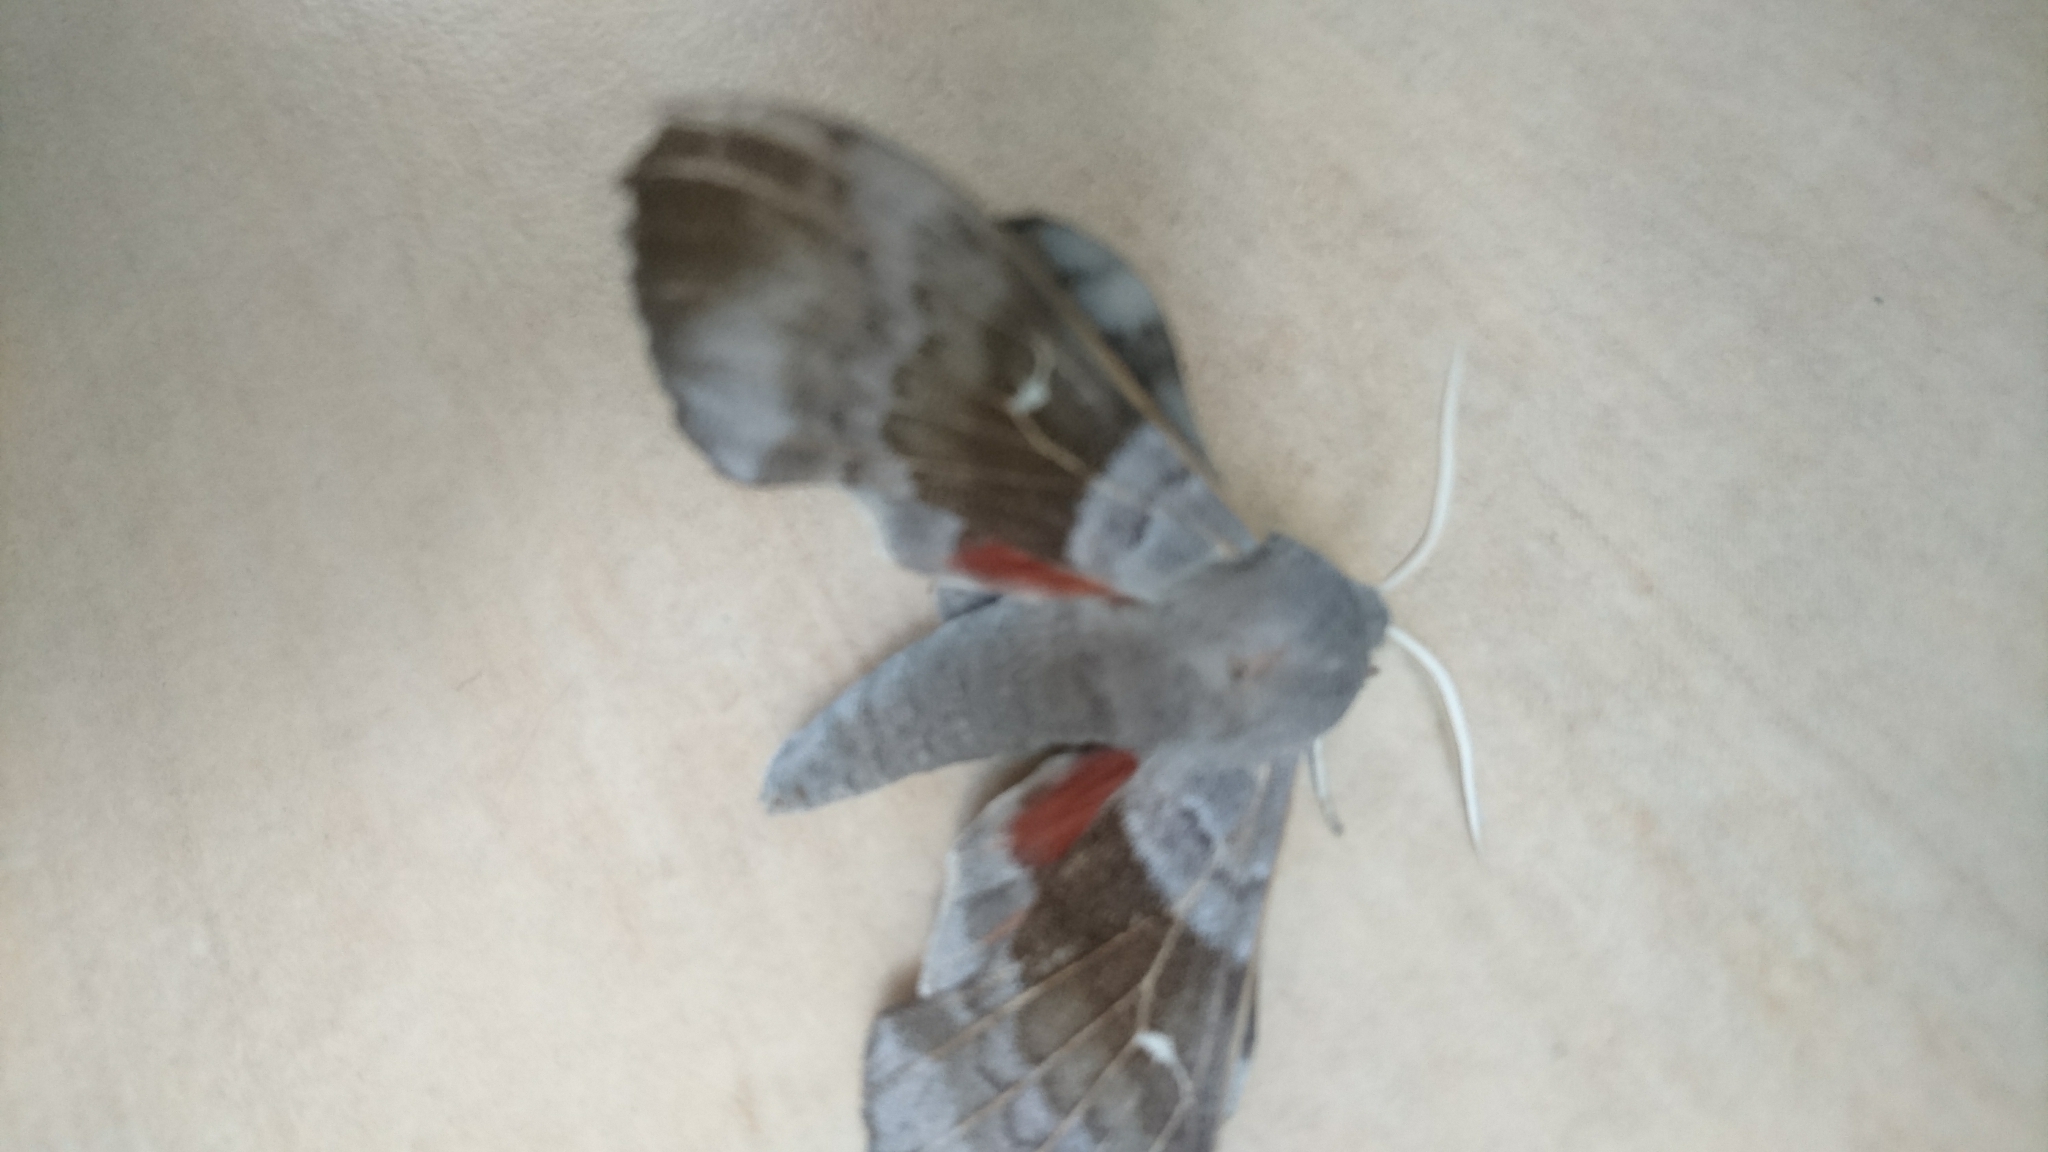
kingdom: Animalia
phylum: Arthropoda
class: Insecta
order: Lepidoptera
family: Sphingidae
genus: Laothoe
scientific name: Laothoe populi
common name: Poplar hawk-moth
